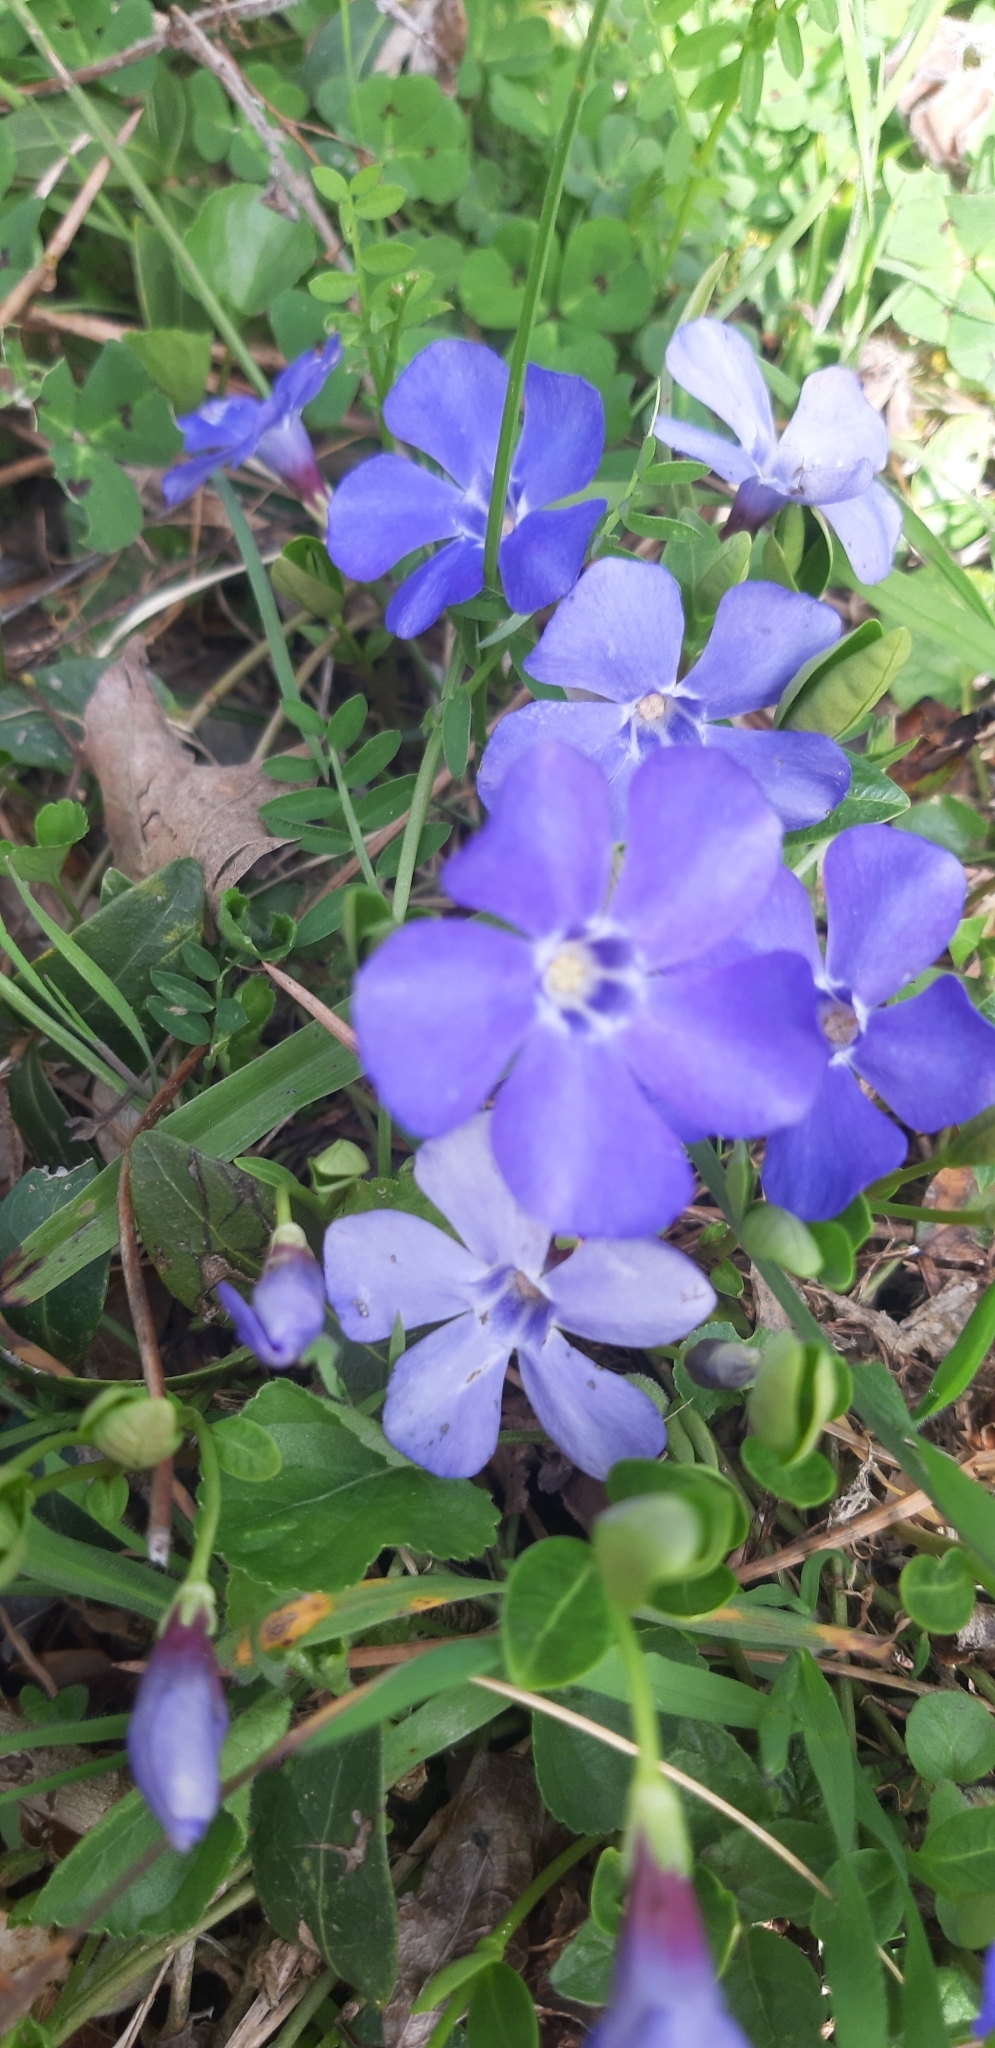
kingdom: Plantae
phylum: Tracheophyta
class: Magnoliopsida
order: Gentianales
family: Apocynaceae
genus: Vinca
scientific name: Vinca minor
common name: Lesser periwinkle
